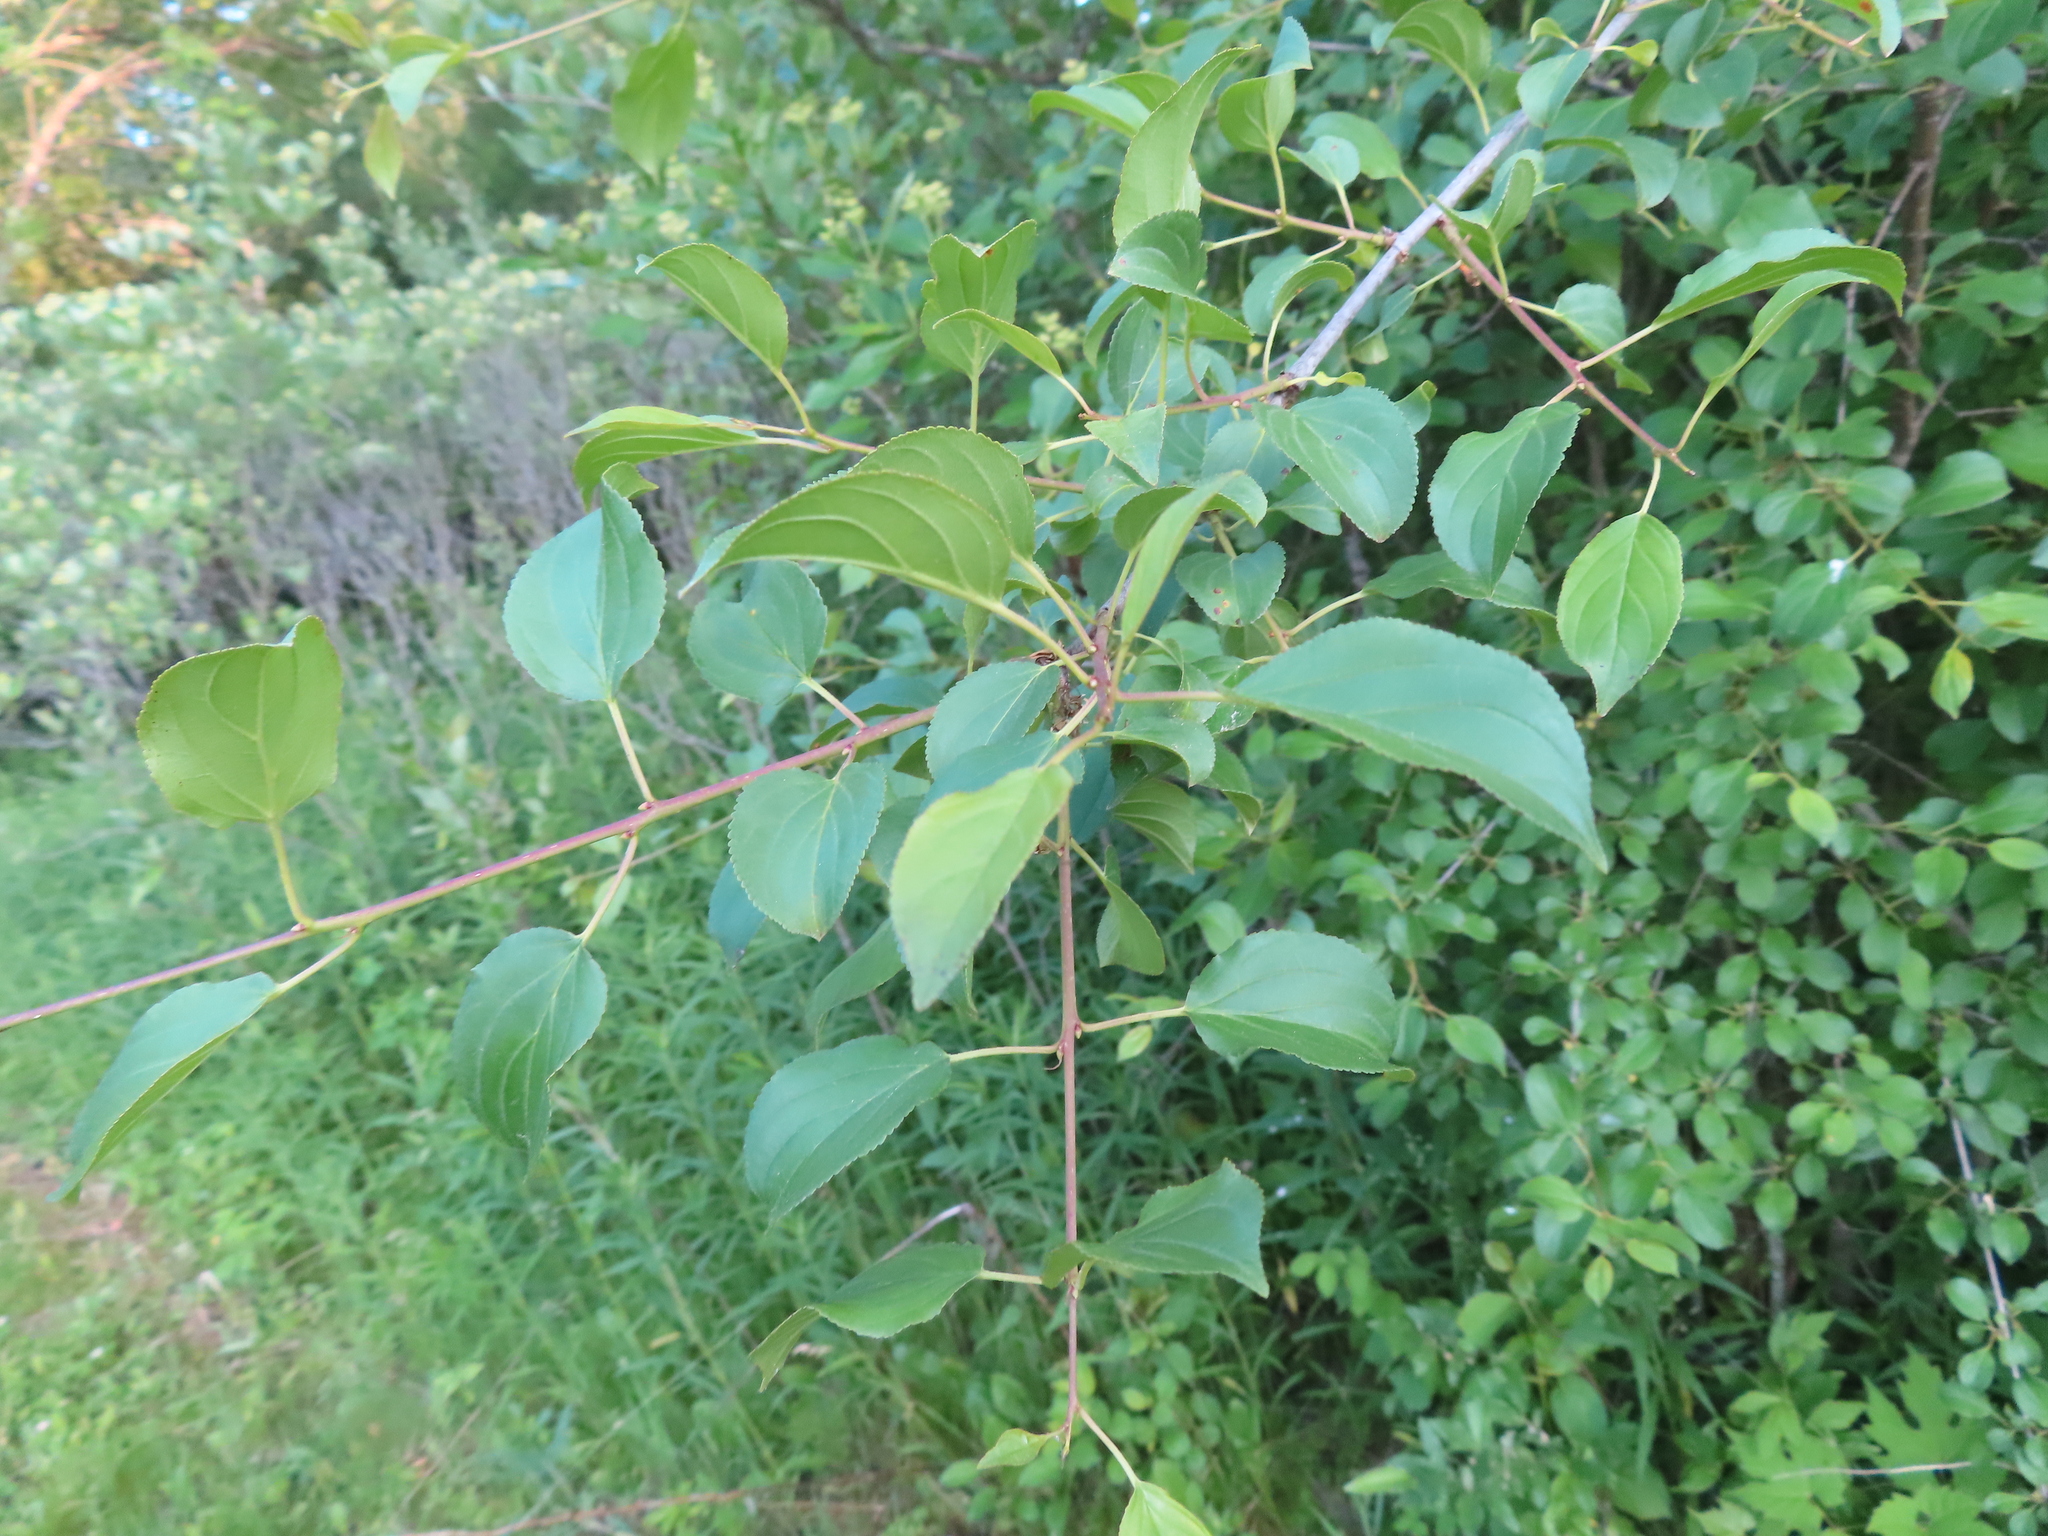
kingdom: Plantae
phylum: Tracheophyta
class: Magnoliopsida
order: Rosales
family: Rhamnaceae
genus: Rhamnus
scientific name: Rhamnus cathartica
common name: Common buckthorn
